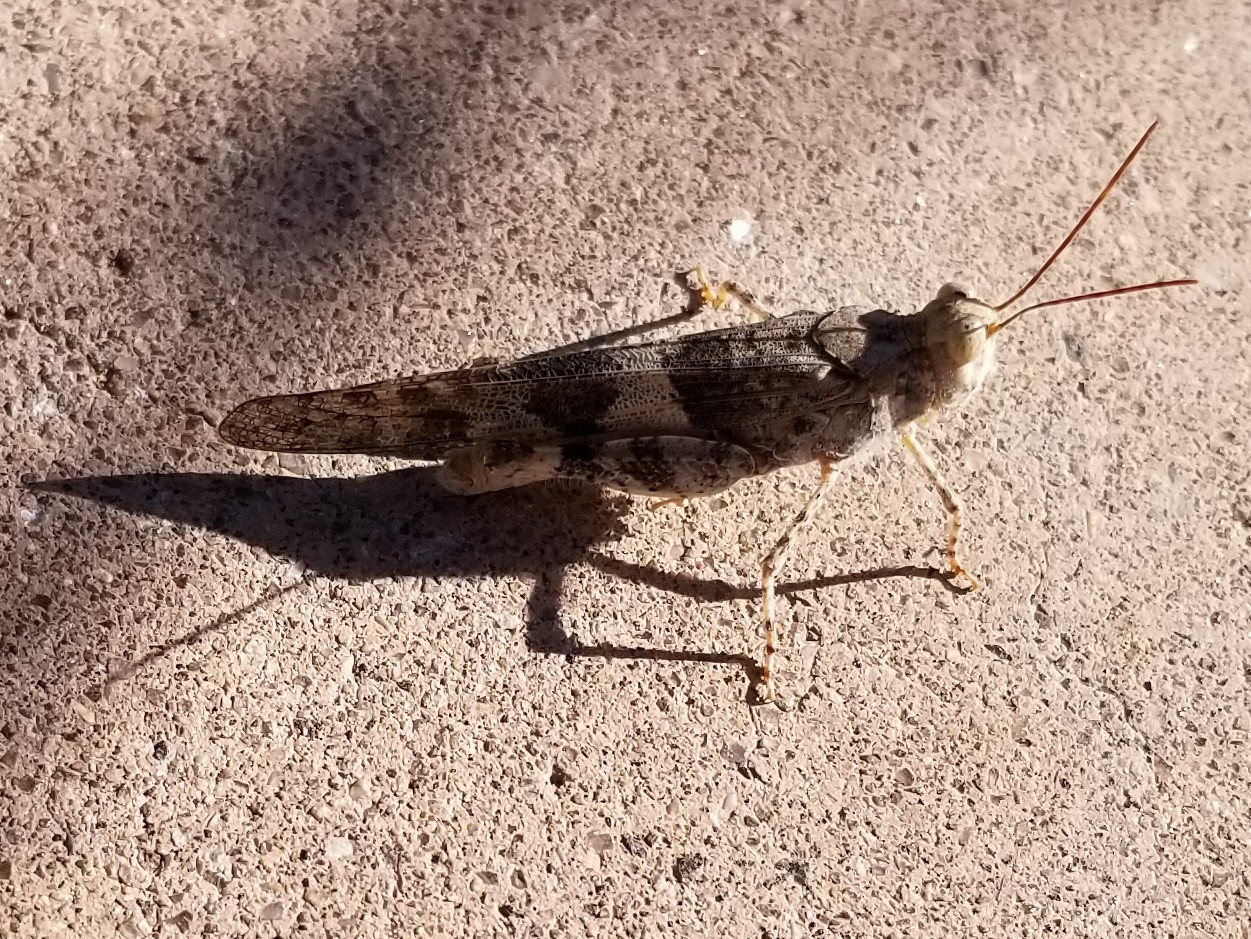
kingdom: Animalia
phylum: Arthropoda
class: Insecta
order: Orthoptera
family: Acrididae
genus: Trimerotropis
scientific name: Trimerotropis pallidipennis
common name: Pallid-winged grasshopper
